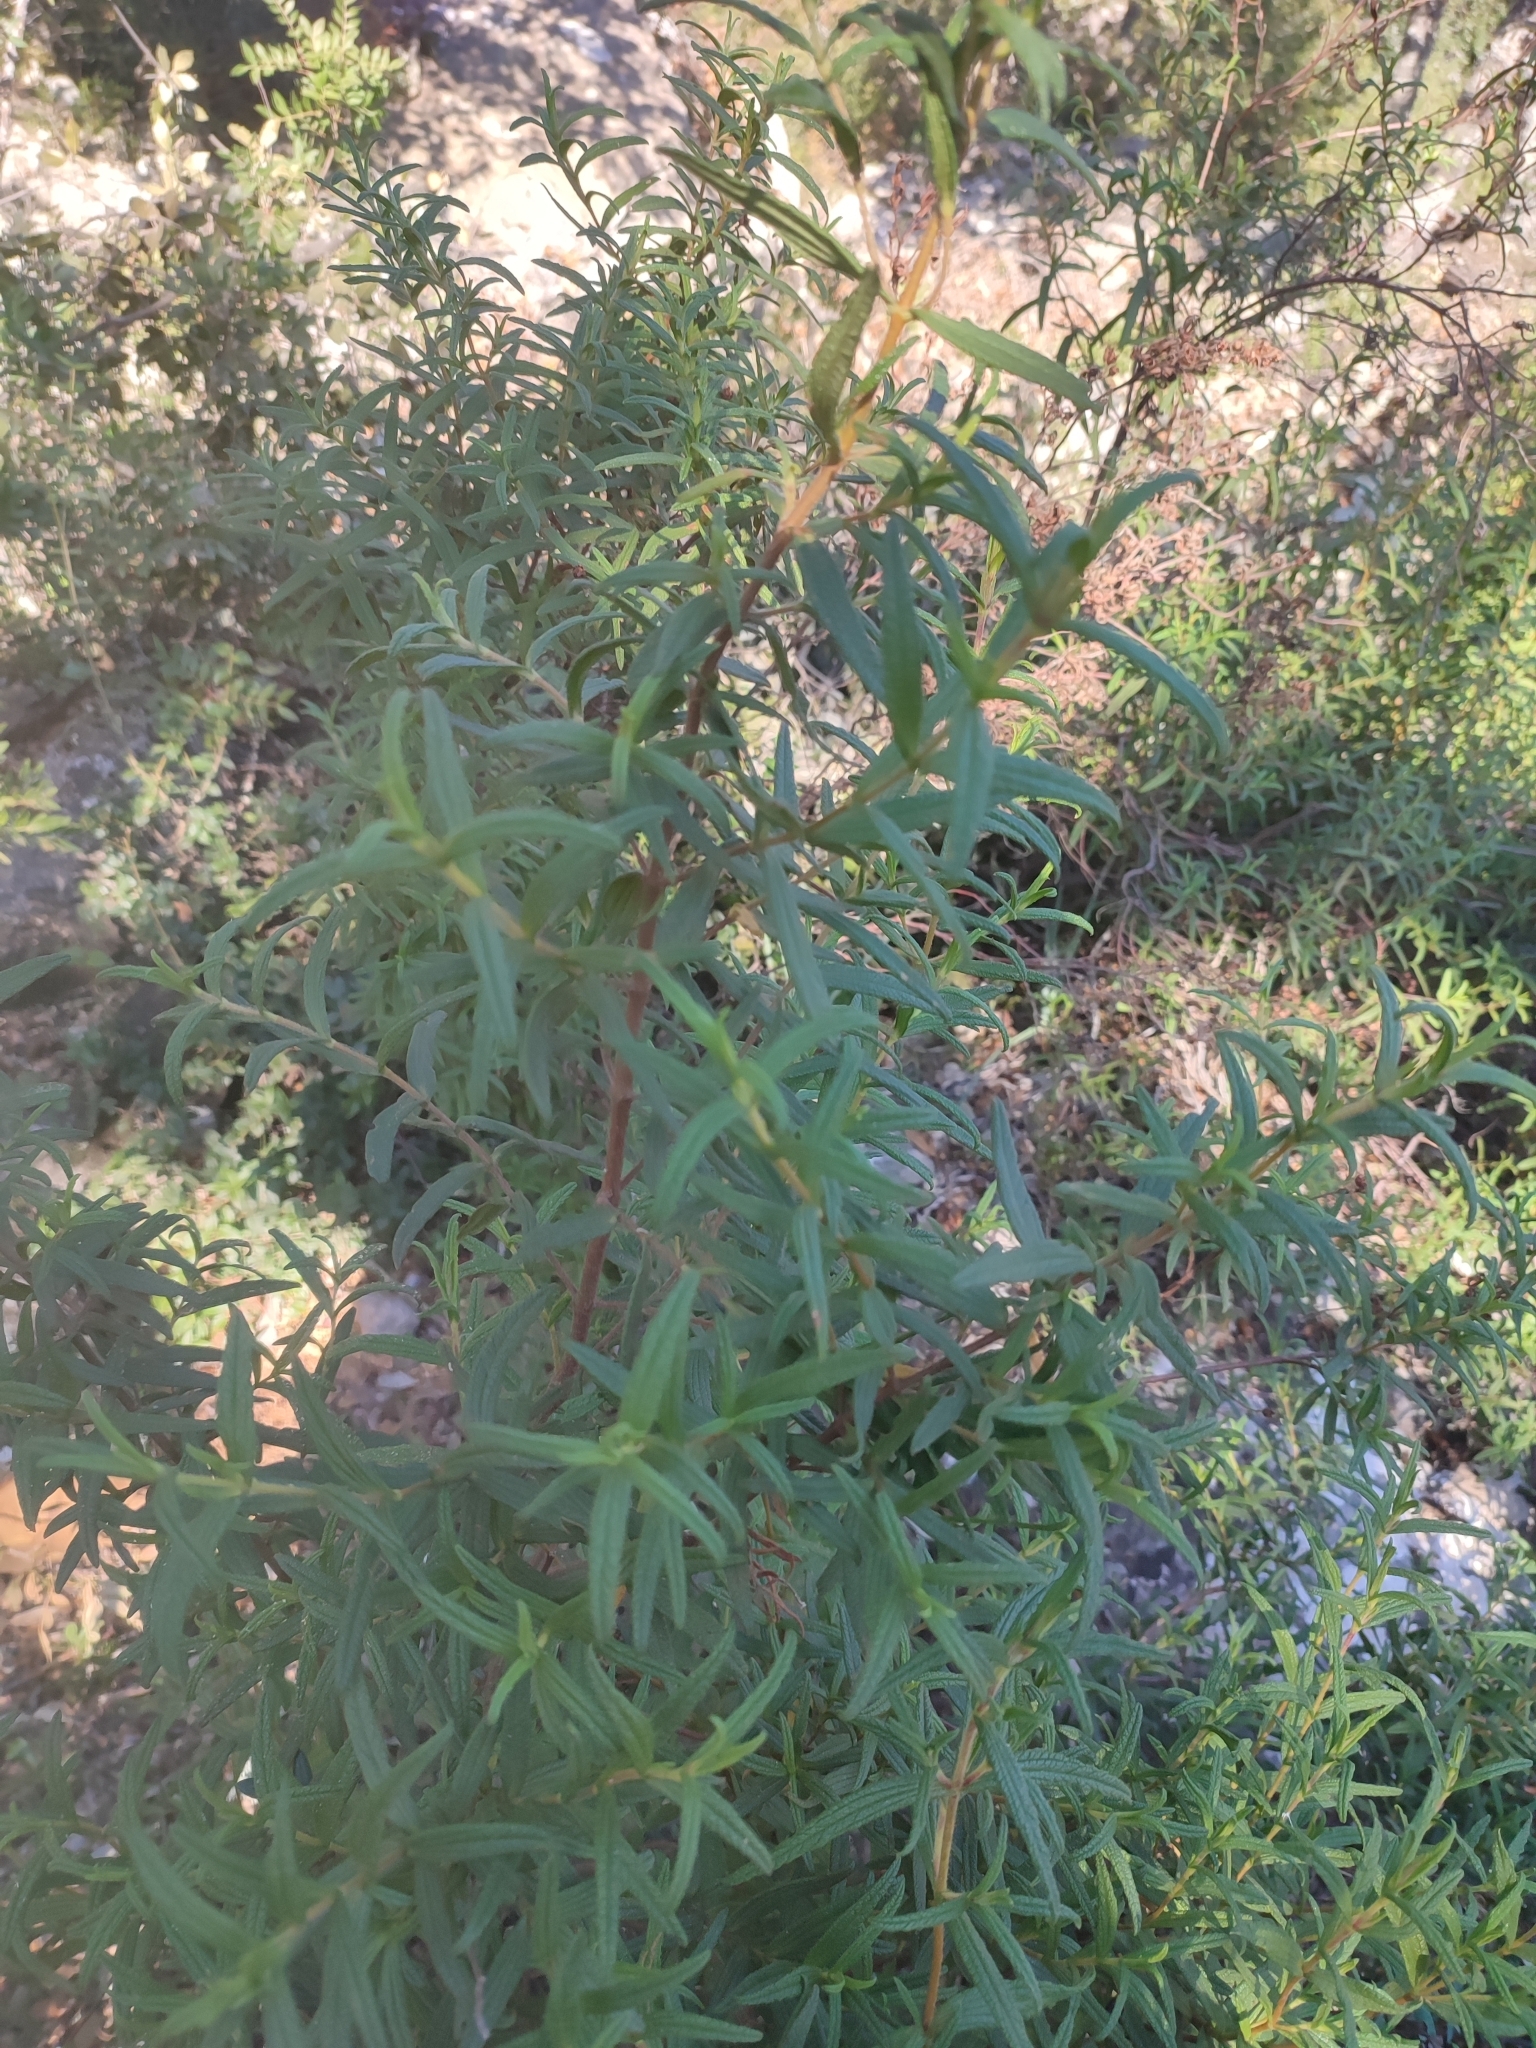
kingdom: Plantae
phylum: Tracheophyta
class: Magnoliopsida
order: Malvales
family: Cistaceae
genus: Cistus
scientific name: Cistus monspeliensis
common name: Montpelier cistus
